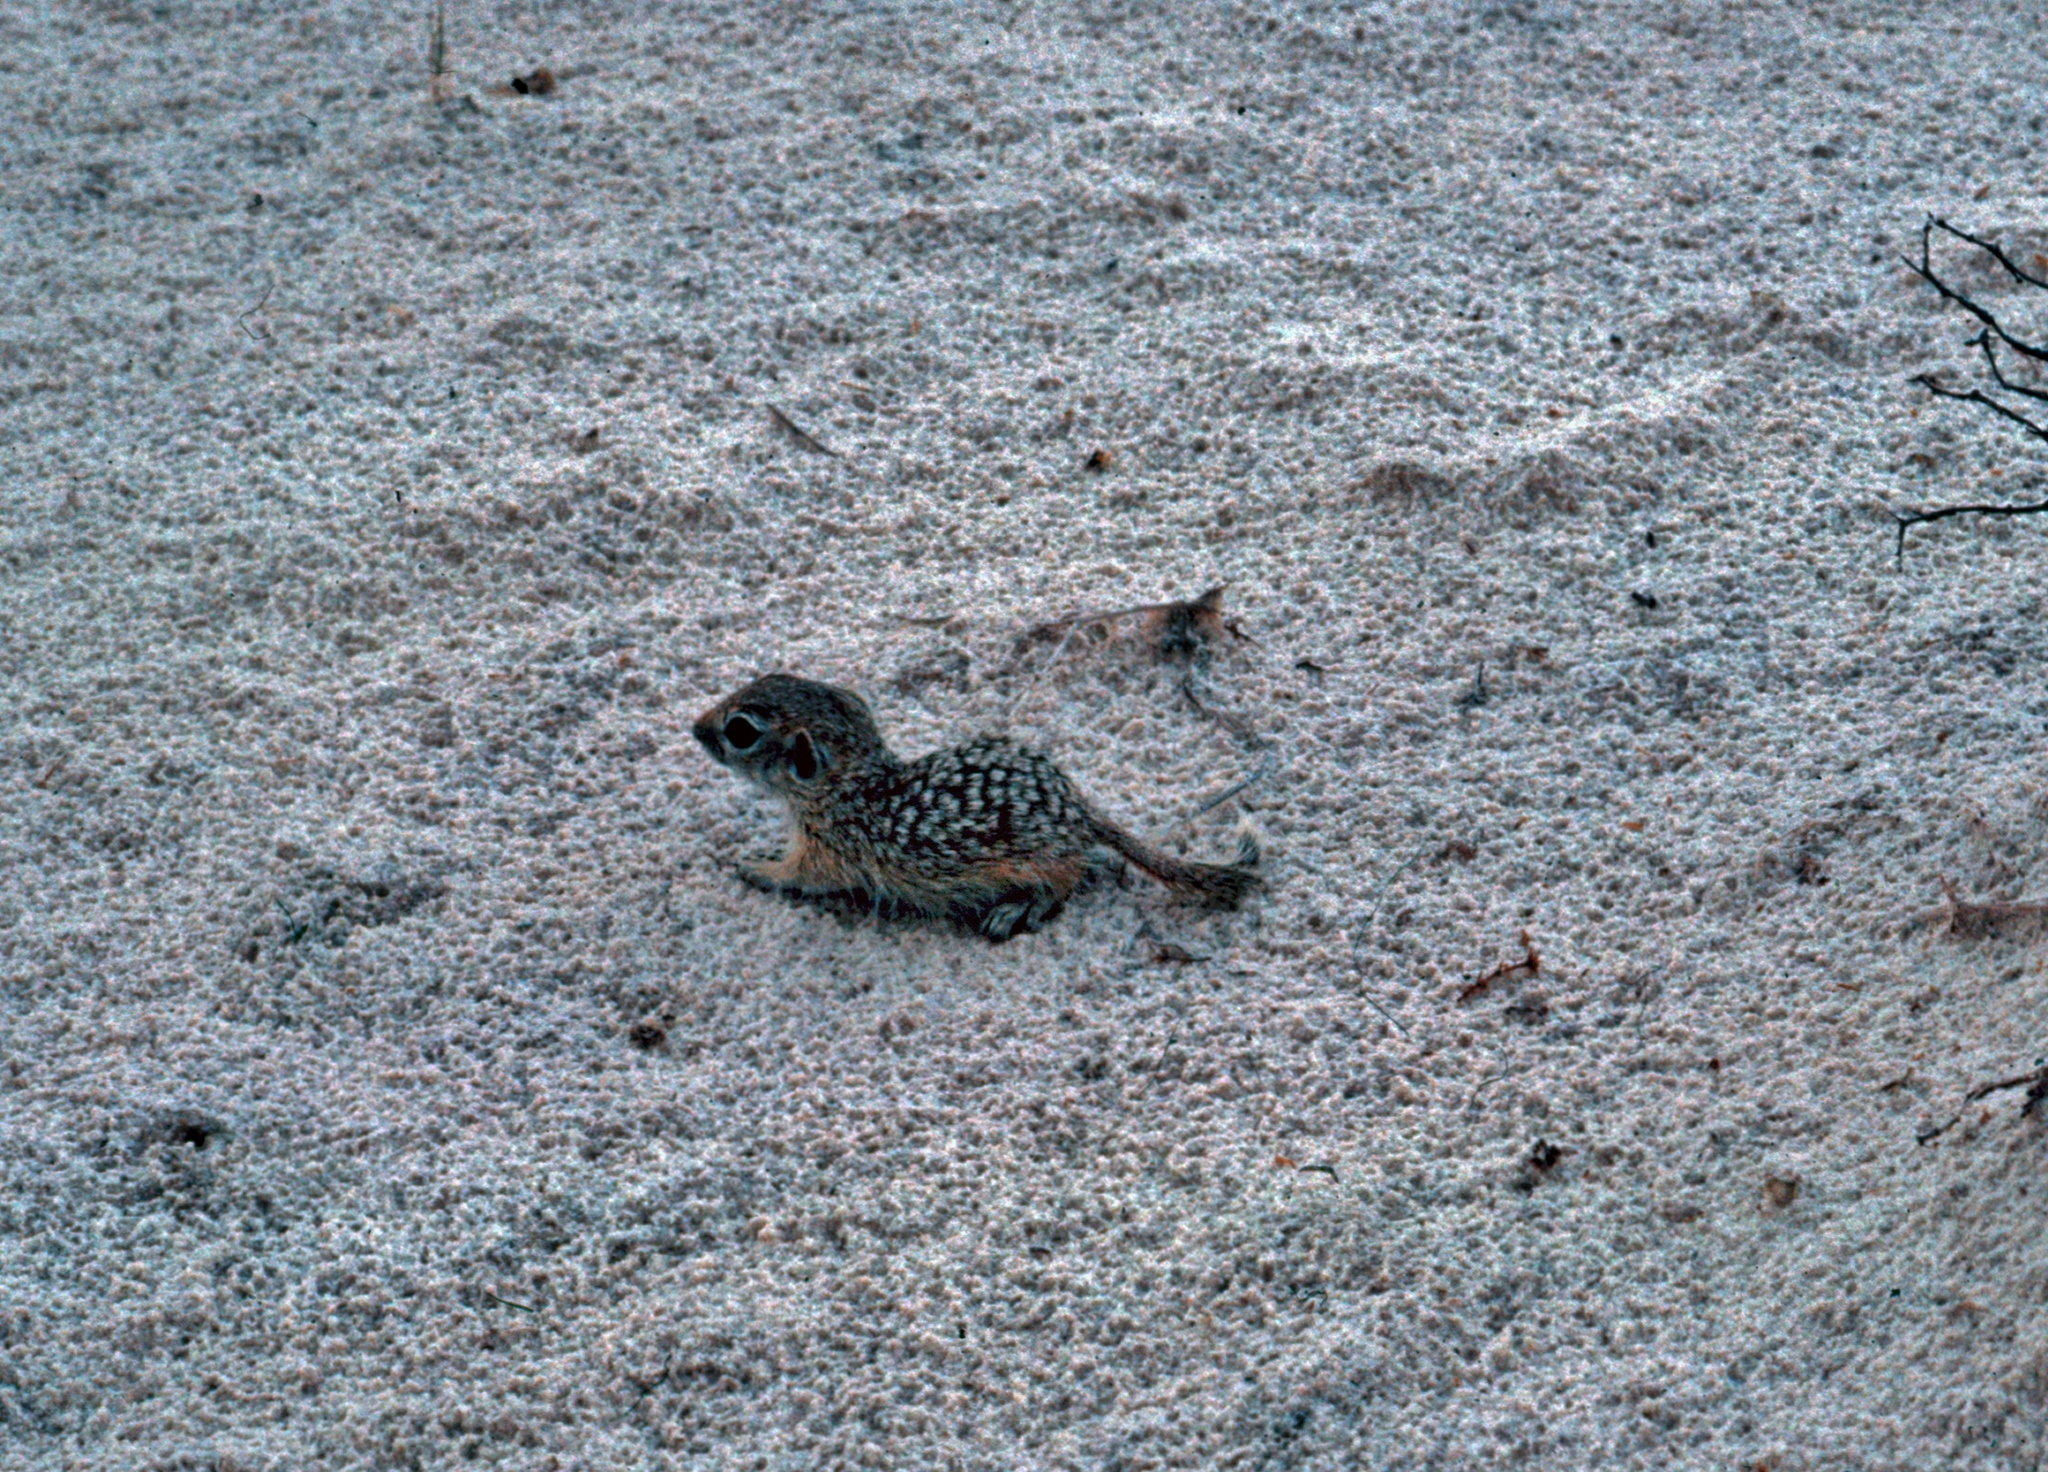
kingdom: Animalia
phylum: Chordata
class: Mammalia
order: Rodentia
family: Sciuridae
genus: Xerospermophilus
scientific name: Xerospermophilus spilosoma
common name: Spotted ground squirrel
